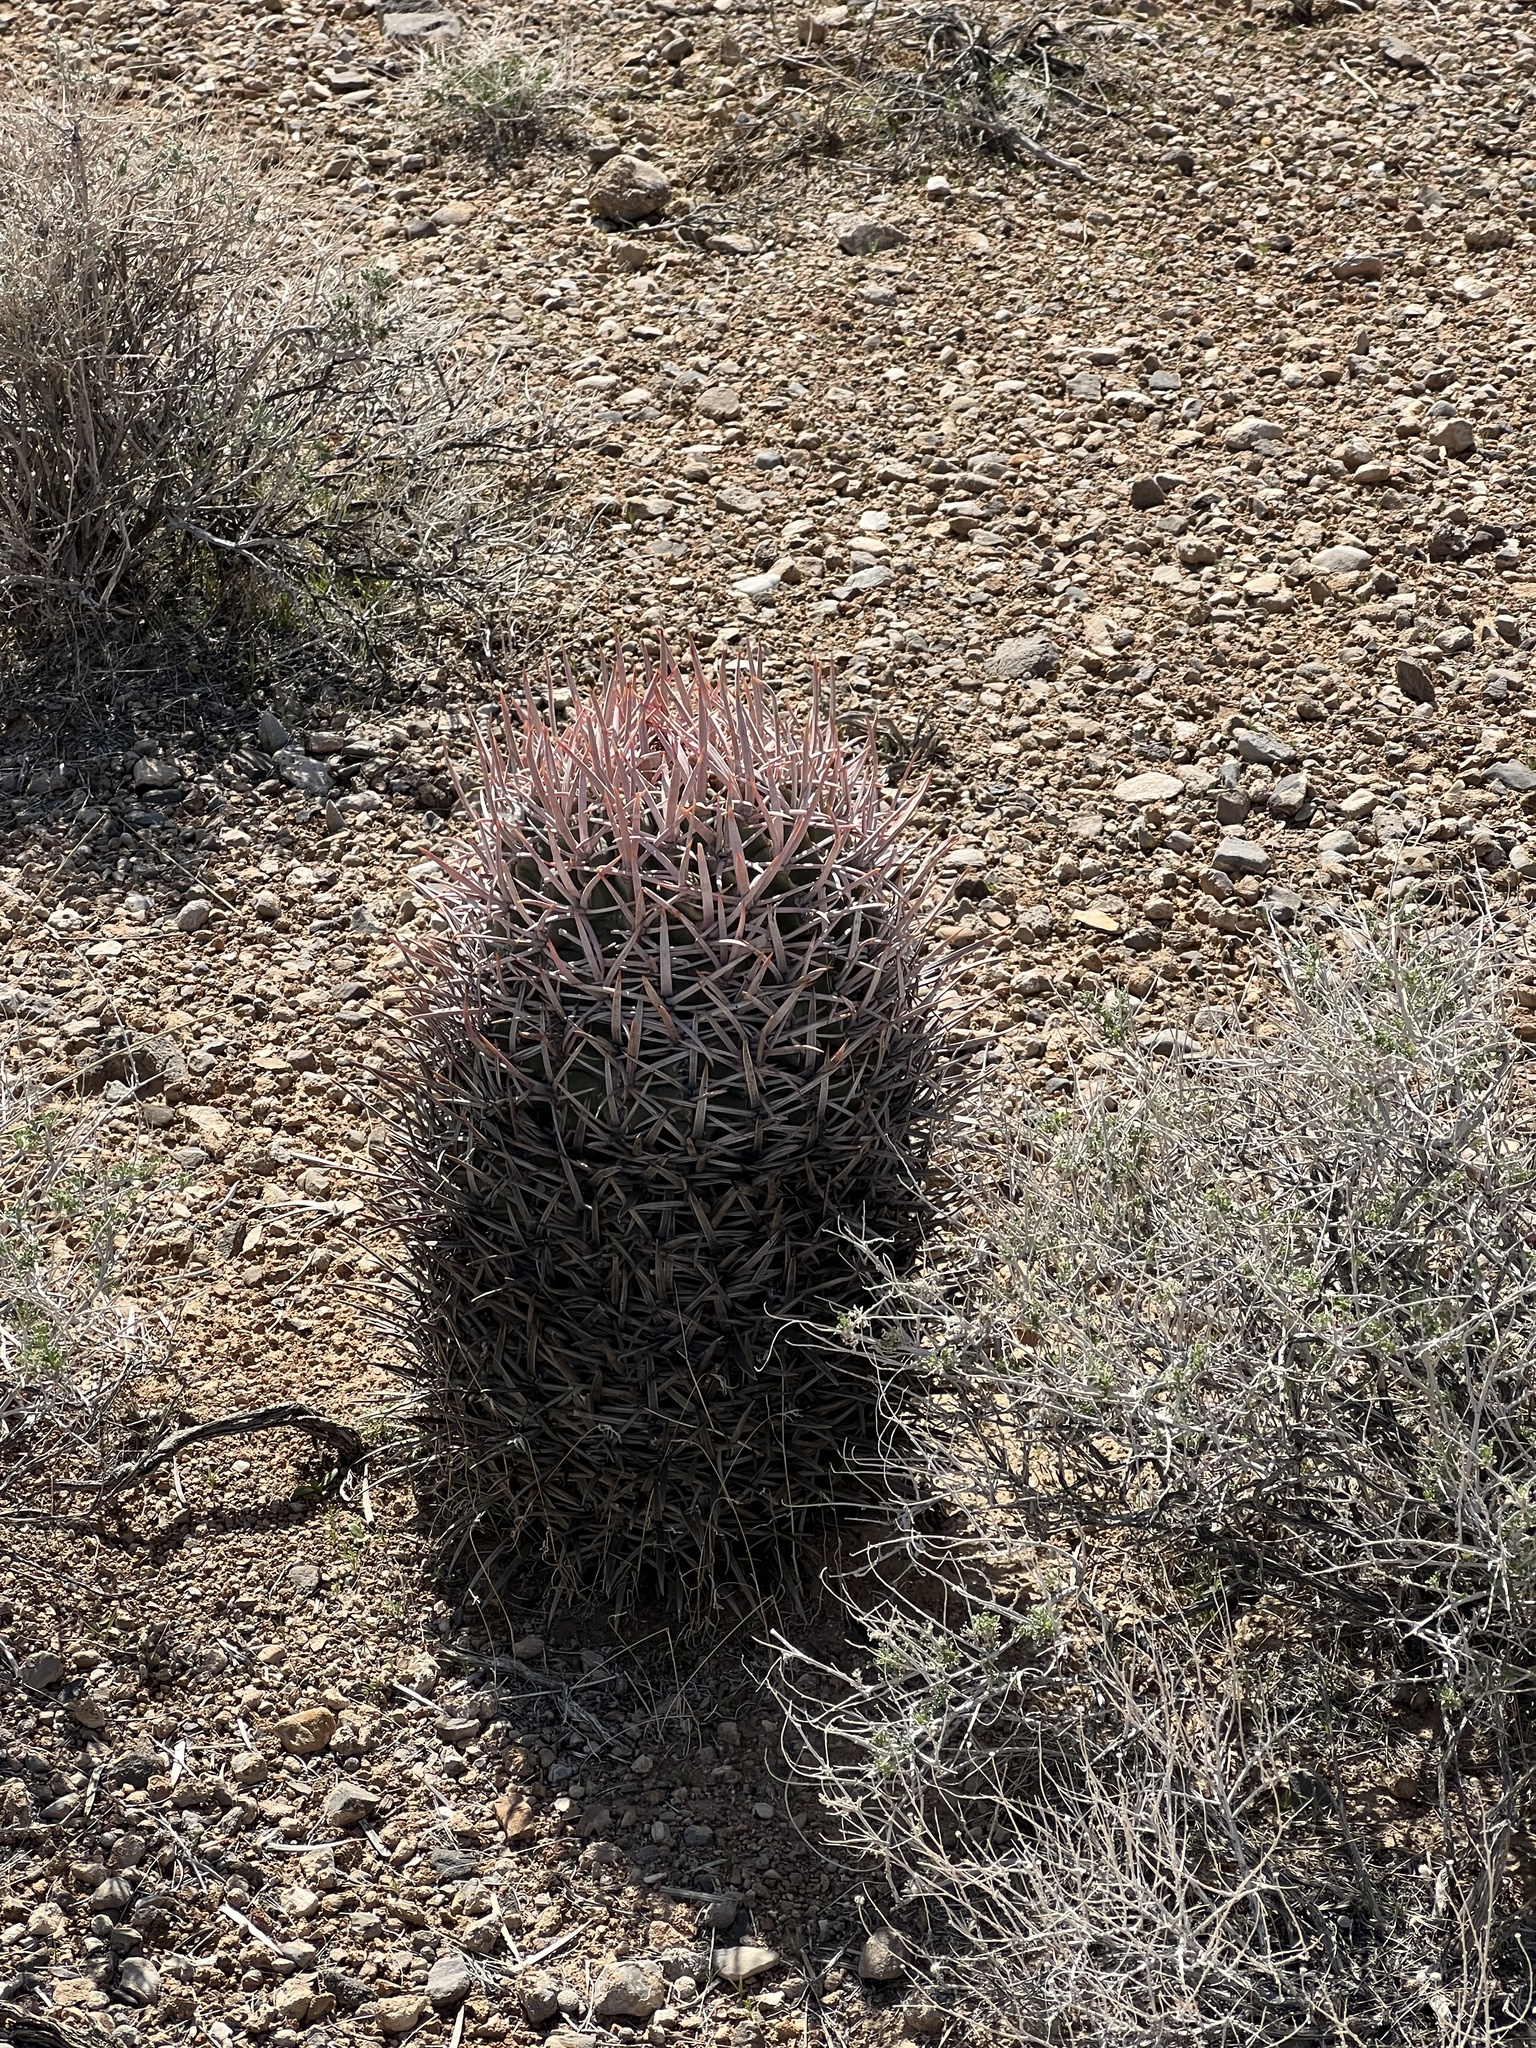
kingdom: Plantae
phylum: Tracheophyta
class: Magnoliopsida
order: Caryophyllales
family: Cactaceae
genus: Echinocactus
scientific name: Echinocactus polycephalus
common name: Cottontop cactus
